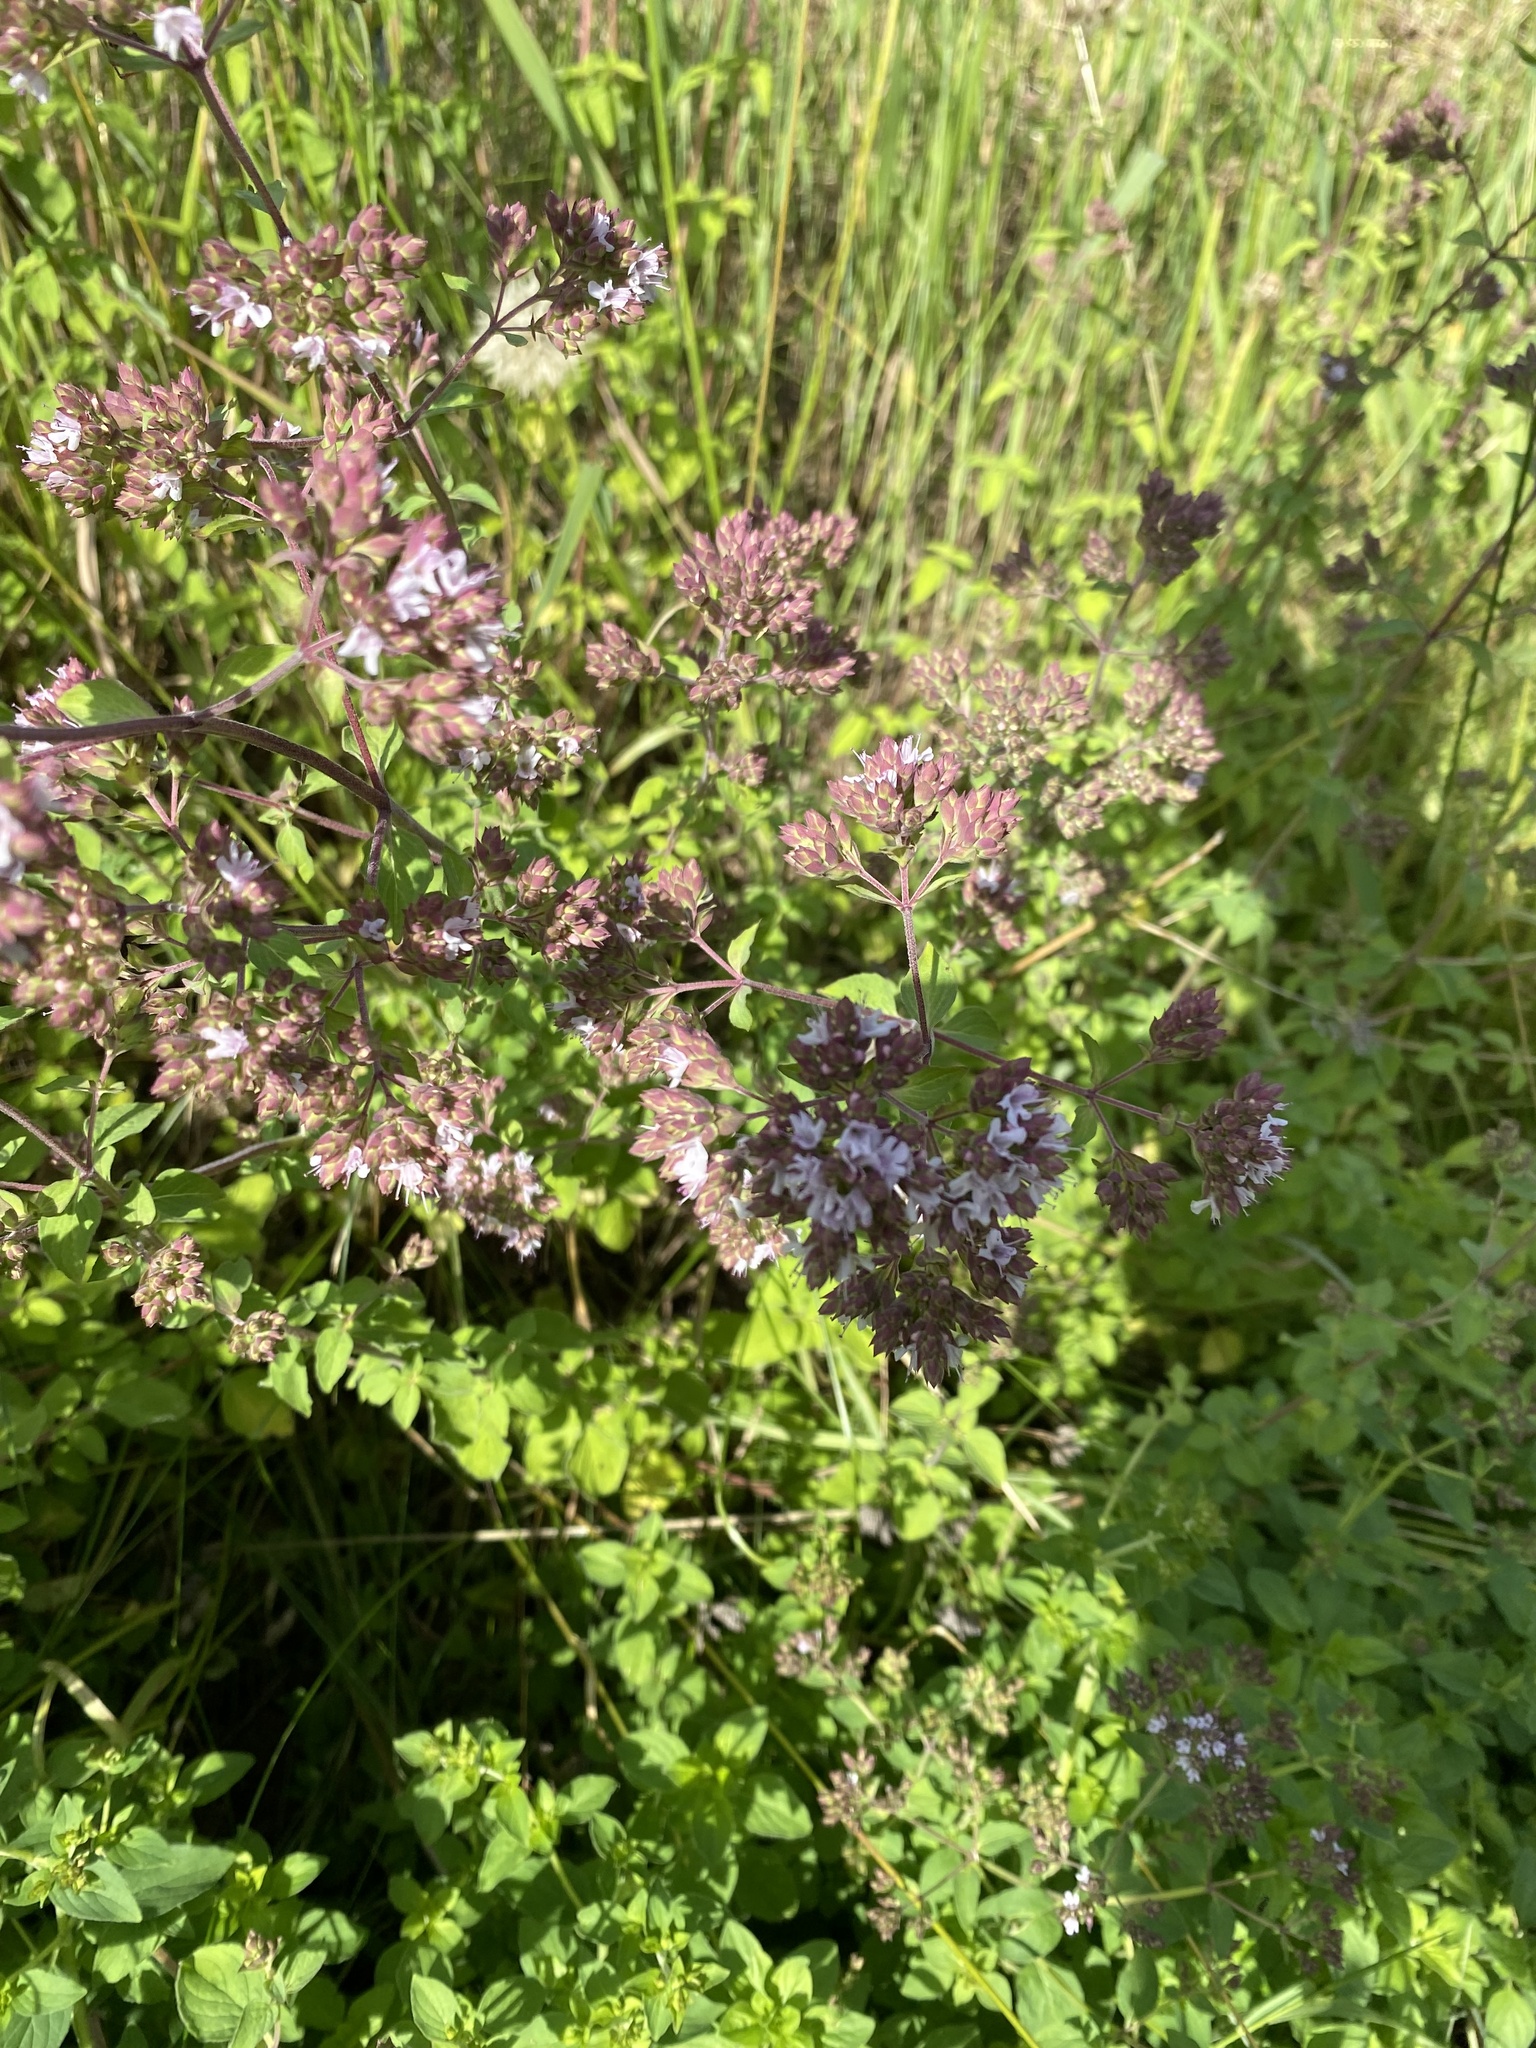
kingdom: Plantae
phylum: Tracheophyta
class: Magnoliopsida
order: Lamiales
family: Lamiaceae
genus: Origanum
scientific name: Origanum vulgare
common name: Wild marjoram
